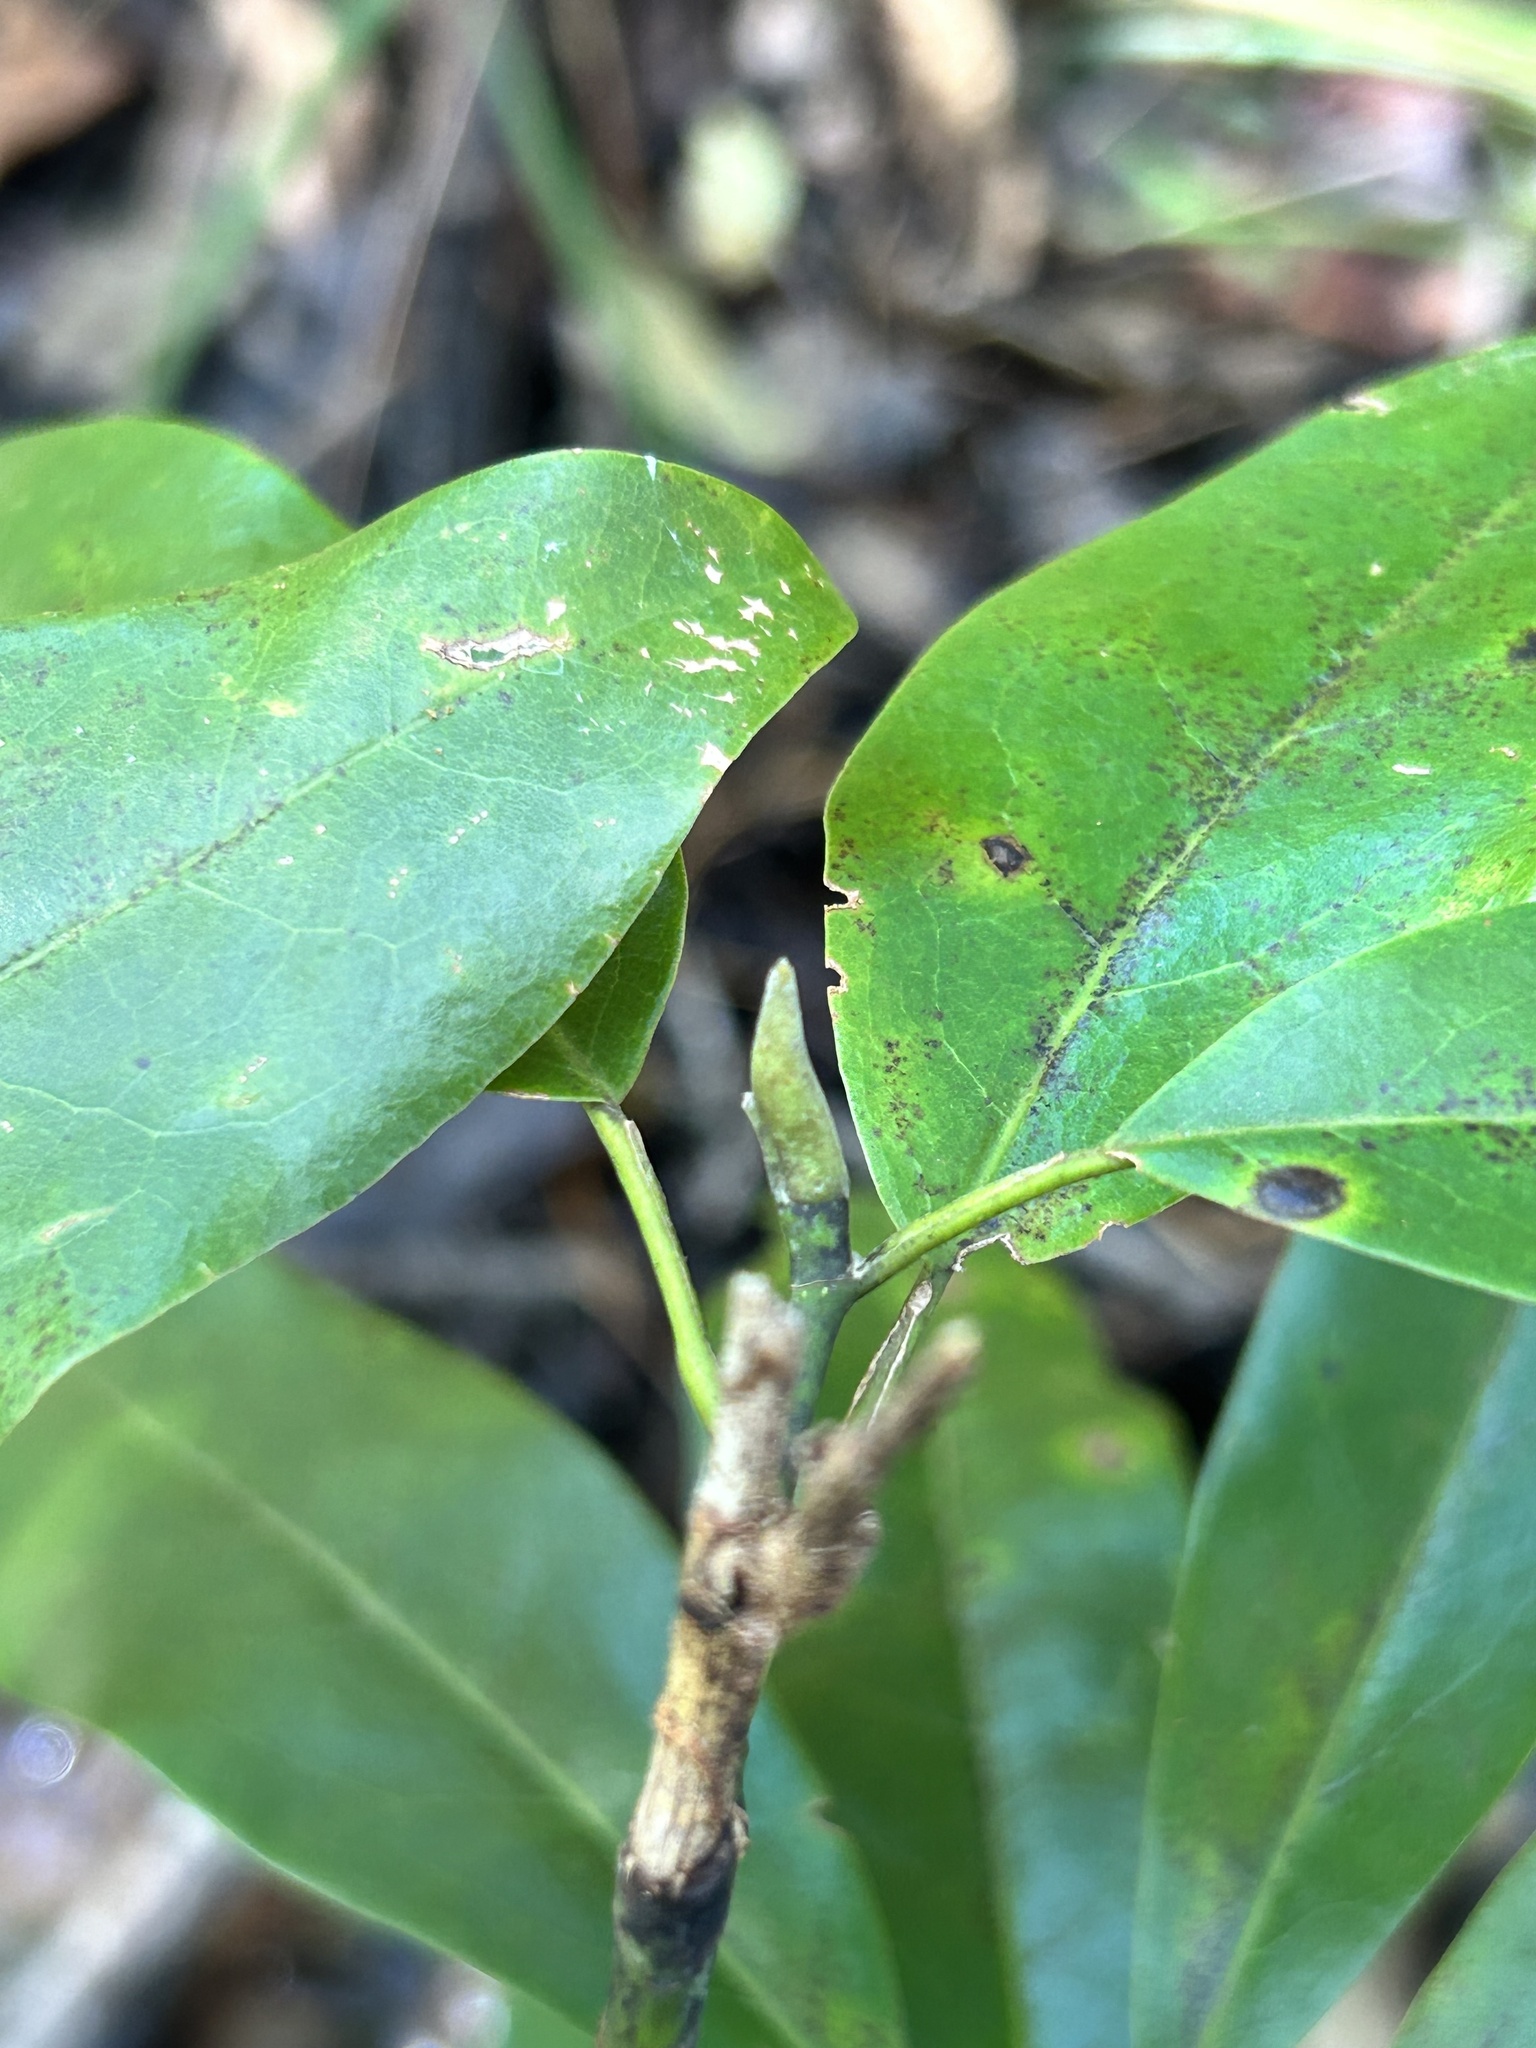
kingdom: Plantae
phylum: Tracheophyta
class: Magnoliopsida
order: Magnoliales
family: Magnoliaceae
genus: Magnolia
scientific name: Magnolia virginiana
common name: Swamp bay
